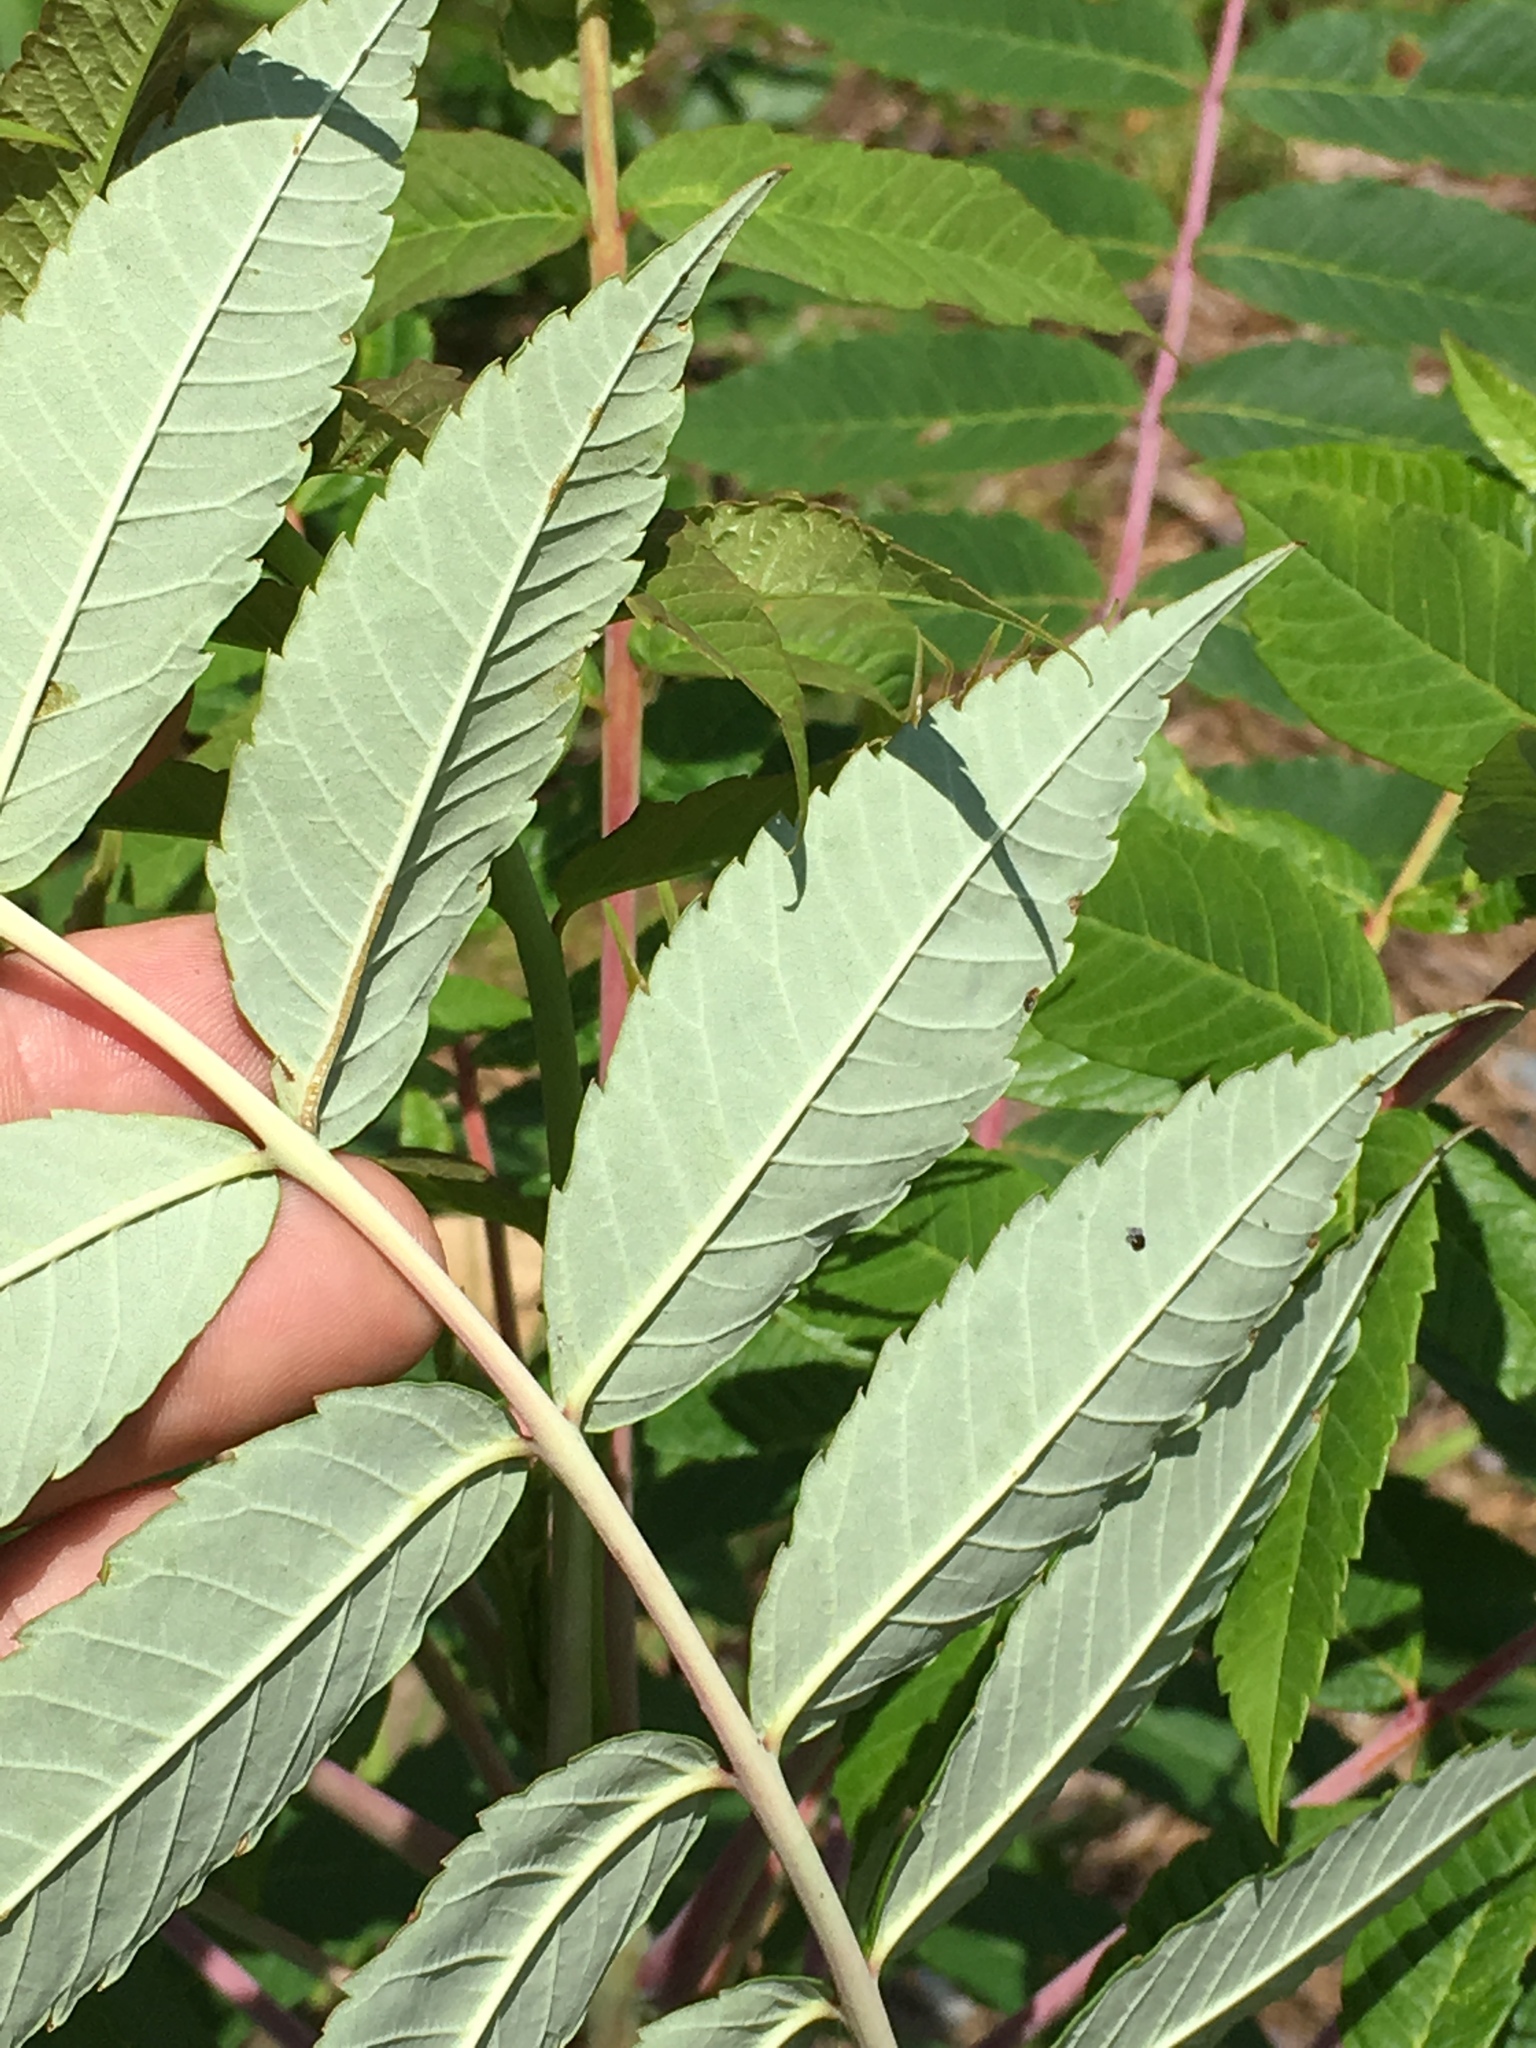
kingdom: Plantae
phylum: Tracheophyta
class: Magnoliopsida
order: Sapindales
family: Anacardiaceae
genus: Rhus
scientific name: Rhus glabra
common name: Scarlet sumac
